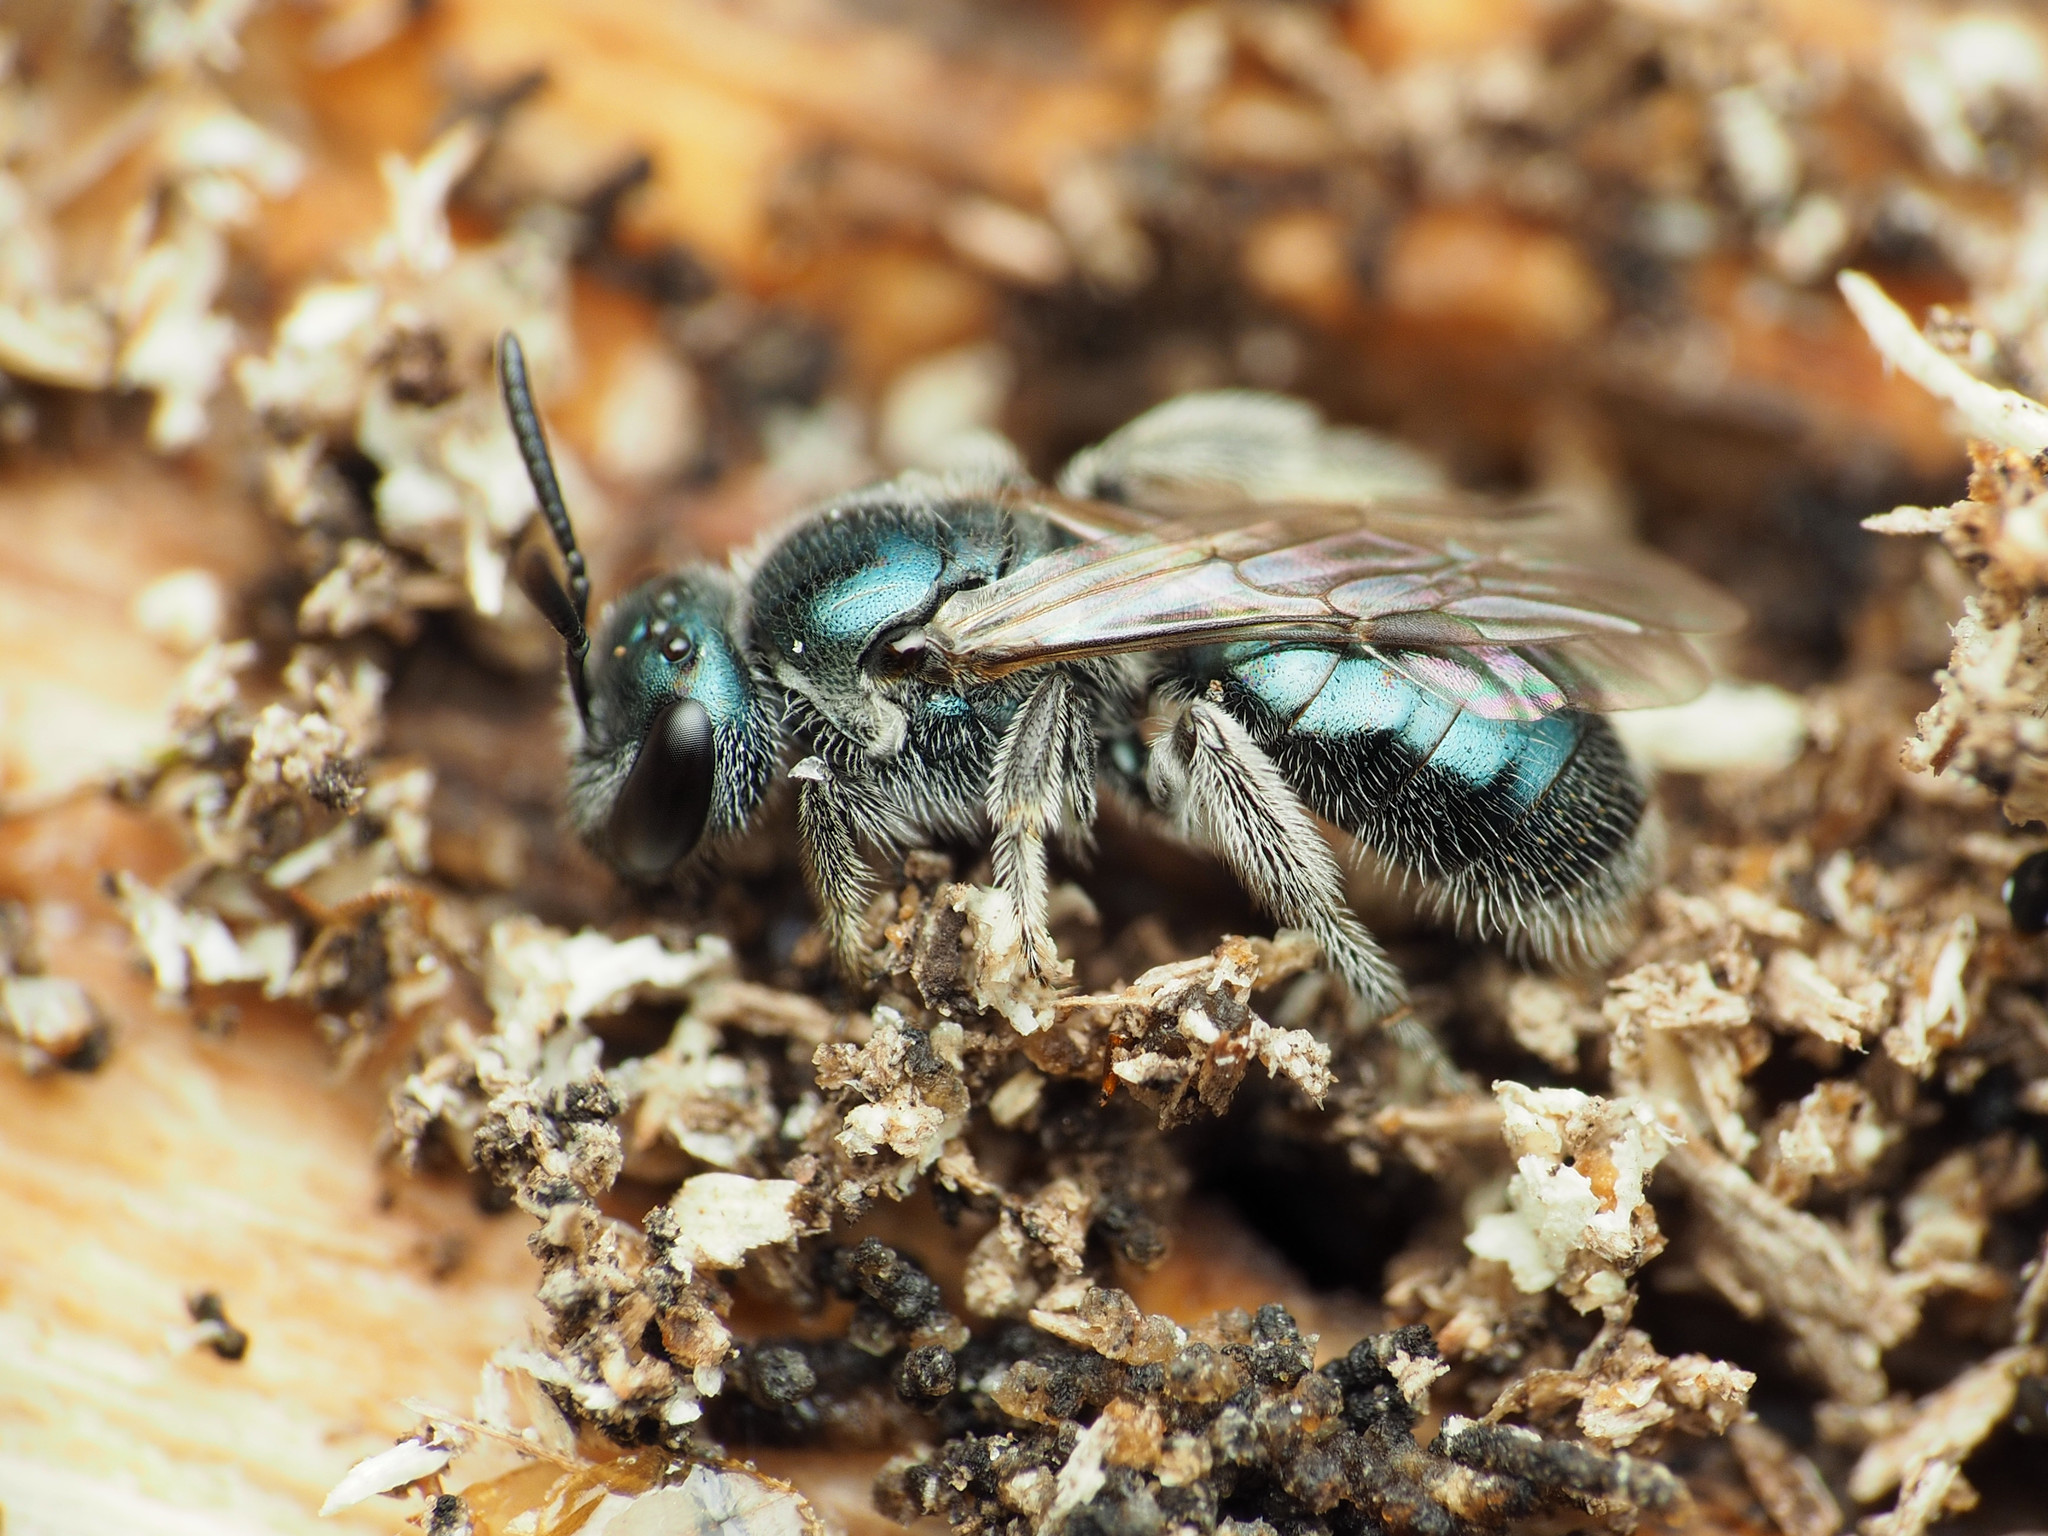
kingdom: Animalia
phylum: Arthropoda
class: Insecta
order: Hymenoptera
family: Halictidae
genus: Lasioglossum
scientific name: Lasioglossum coeruleum
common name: Deep-blue sweat bee
